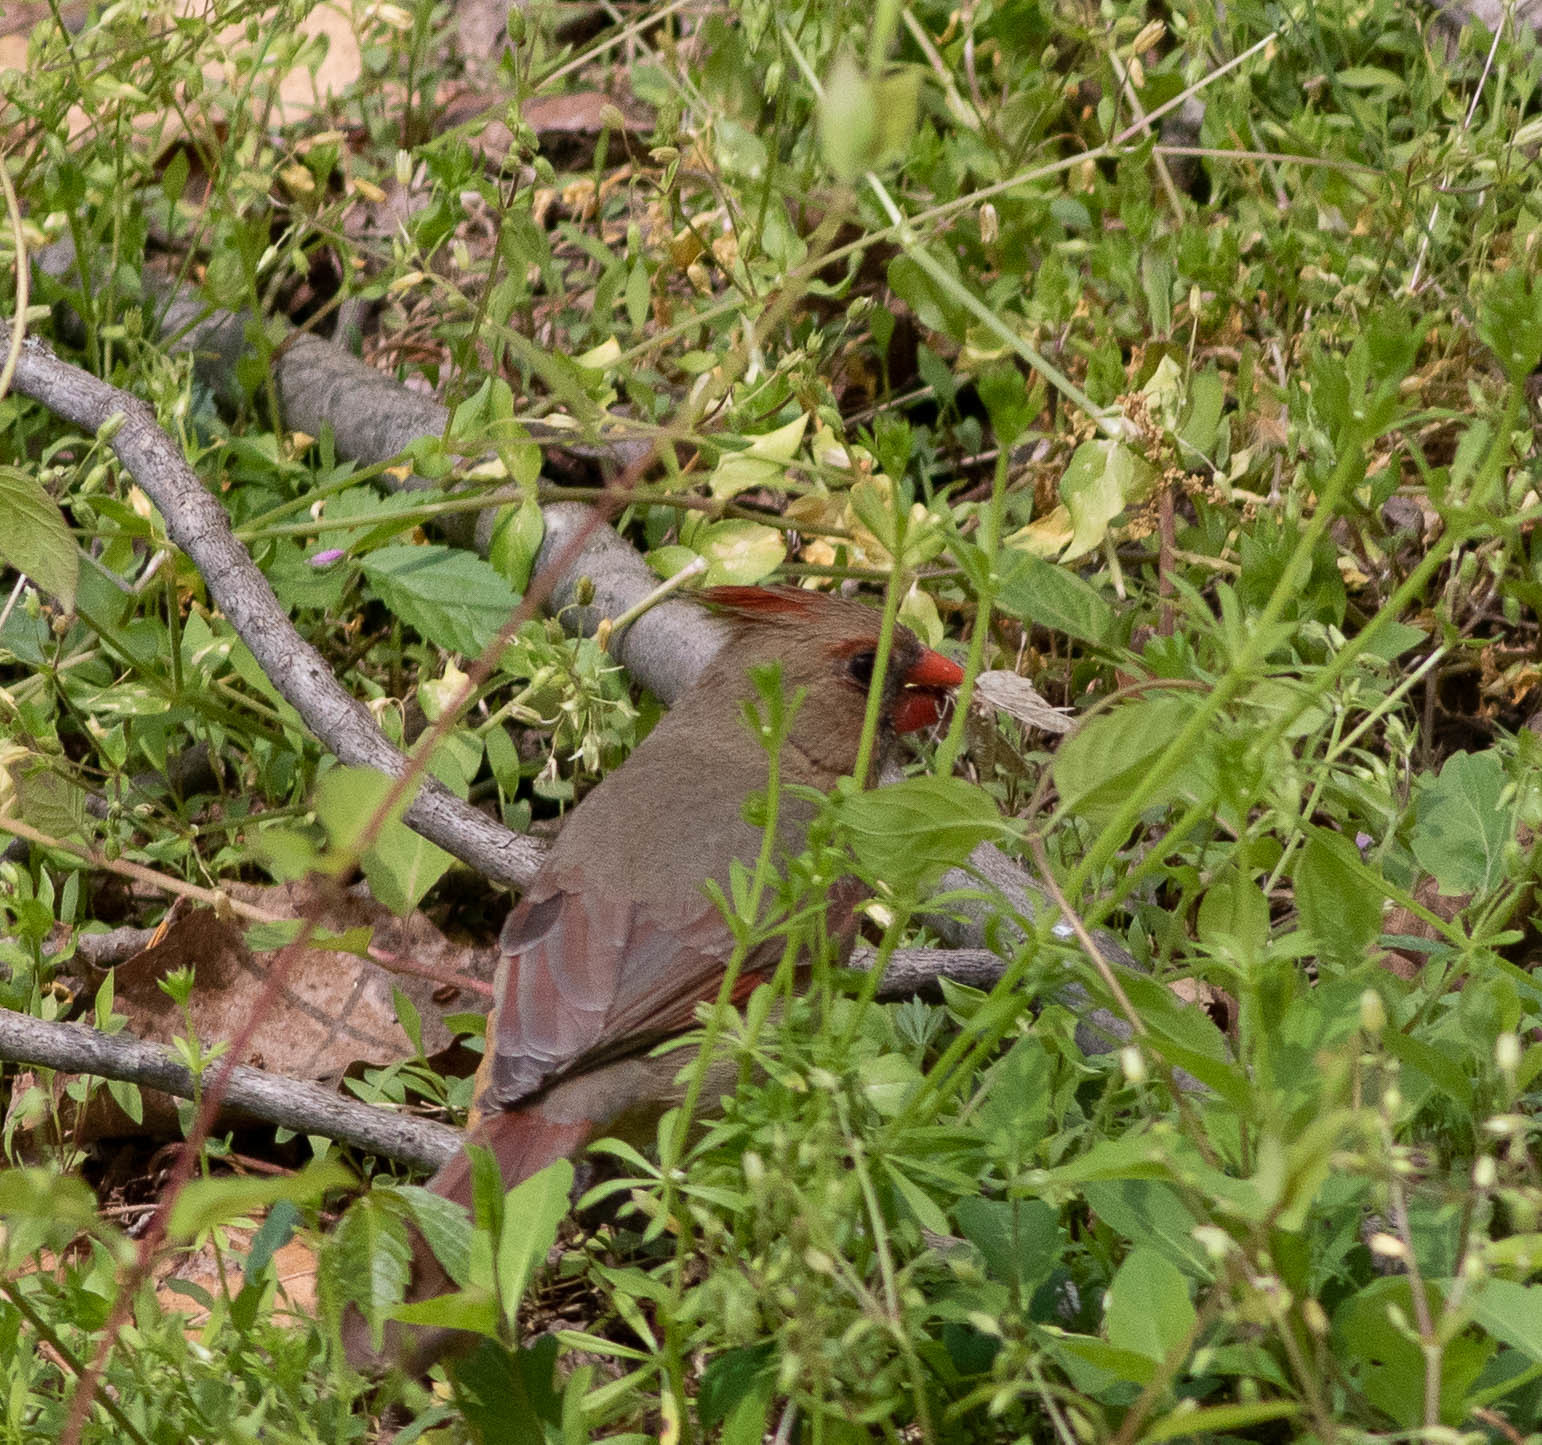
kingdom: Animalia
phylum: Chordata
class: Aves
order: Passeriformes
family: Cardinalidae
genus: Cardinalis
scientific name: Cardinalis cardinalis
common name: Northern cardinal
